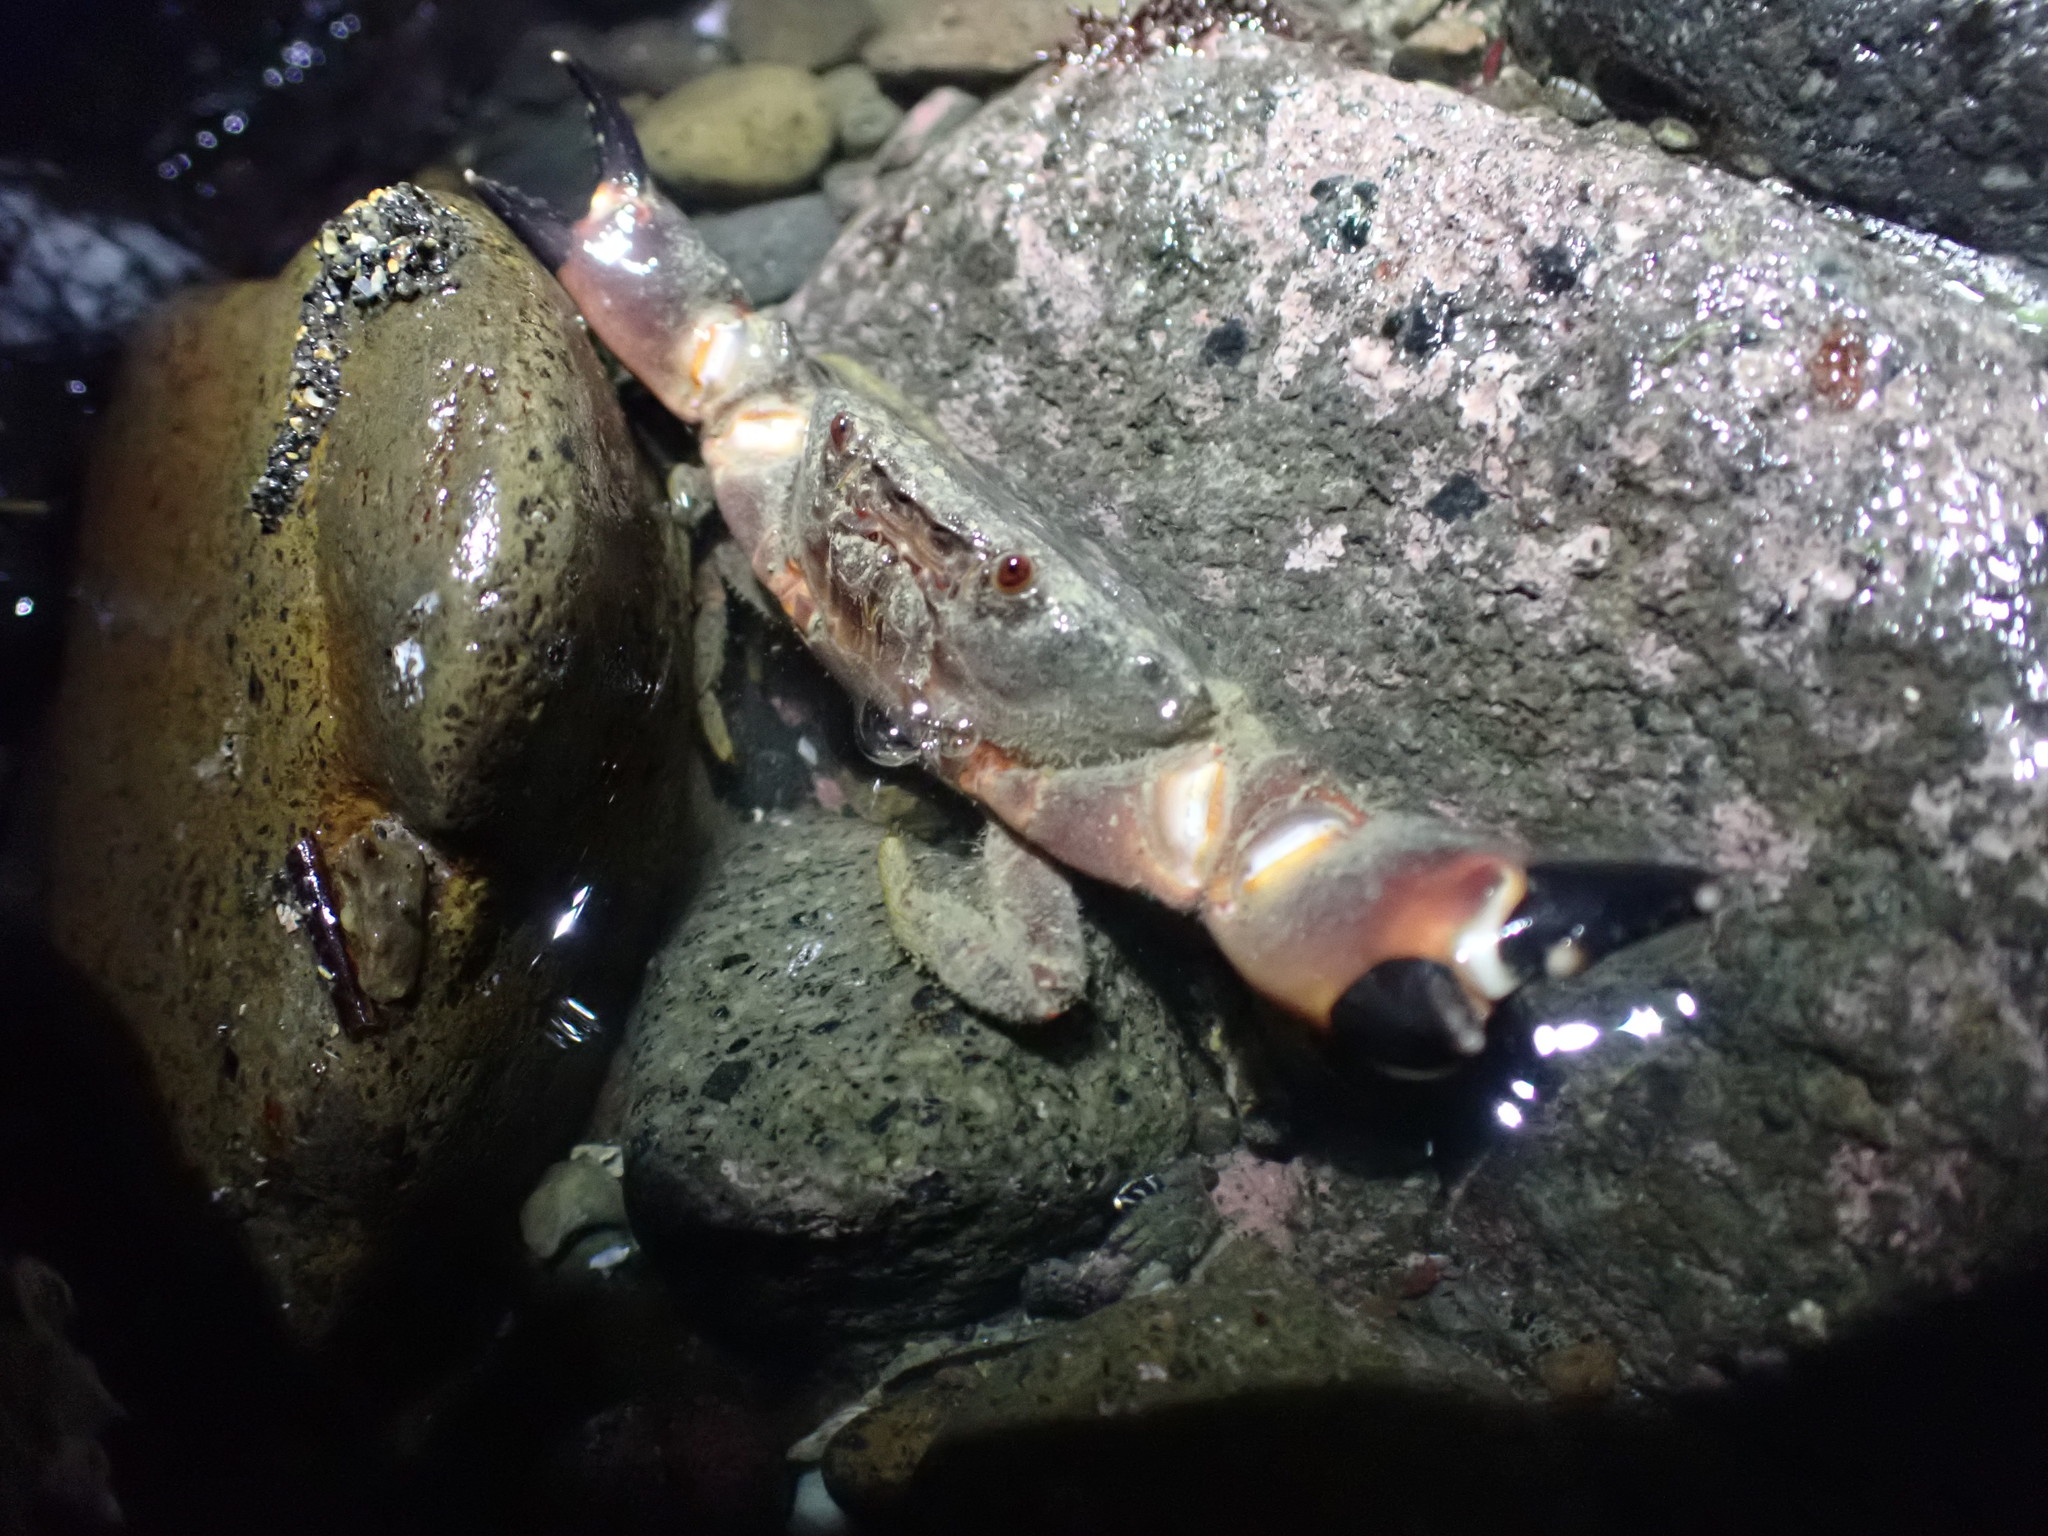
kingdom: Animalia
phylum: Arthropoda
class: Malacostraca
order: Decapoda
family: Oziidae
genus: Ozius
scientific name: Ozius deplanatus
